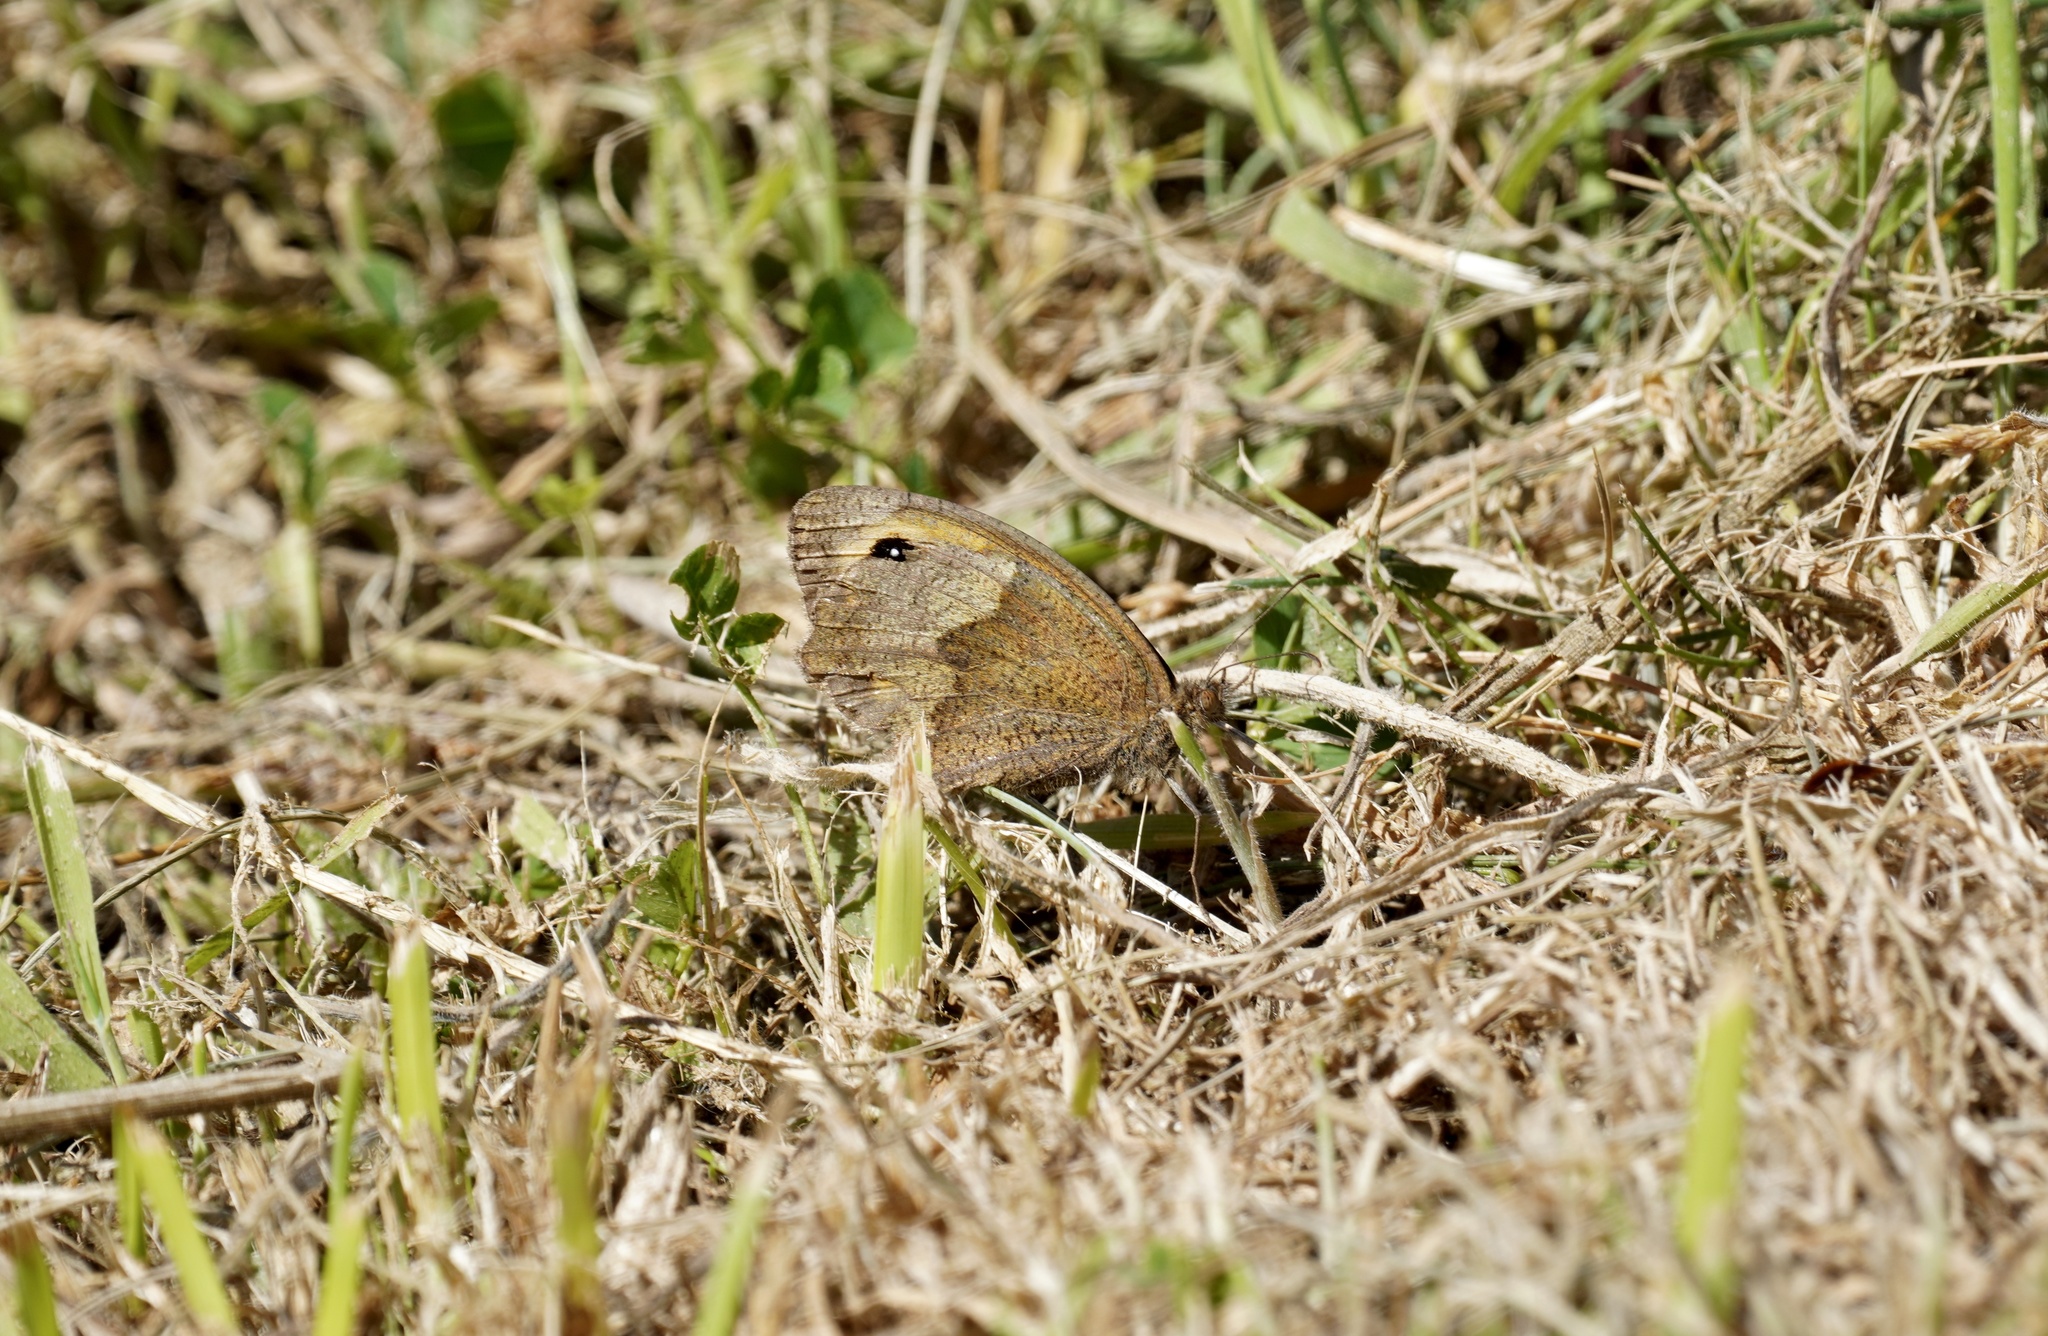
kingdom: Animalia
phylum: Arthropoda
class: Insecta
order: Lepidoptera
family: Nymphalidae
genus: Maniola
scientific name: Maniola jurtina
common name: Meadow brown
